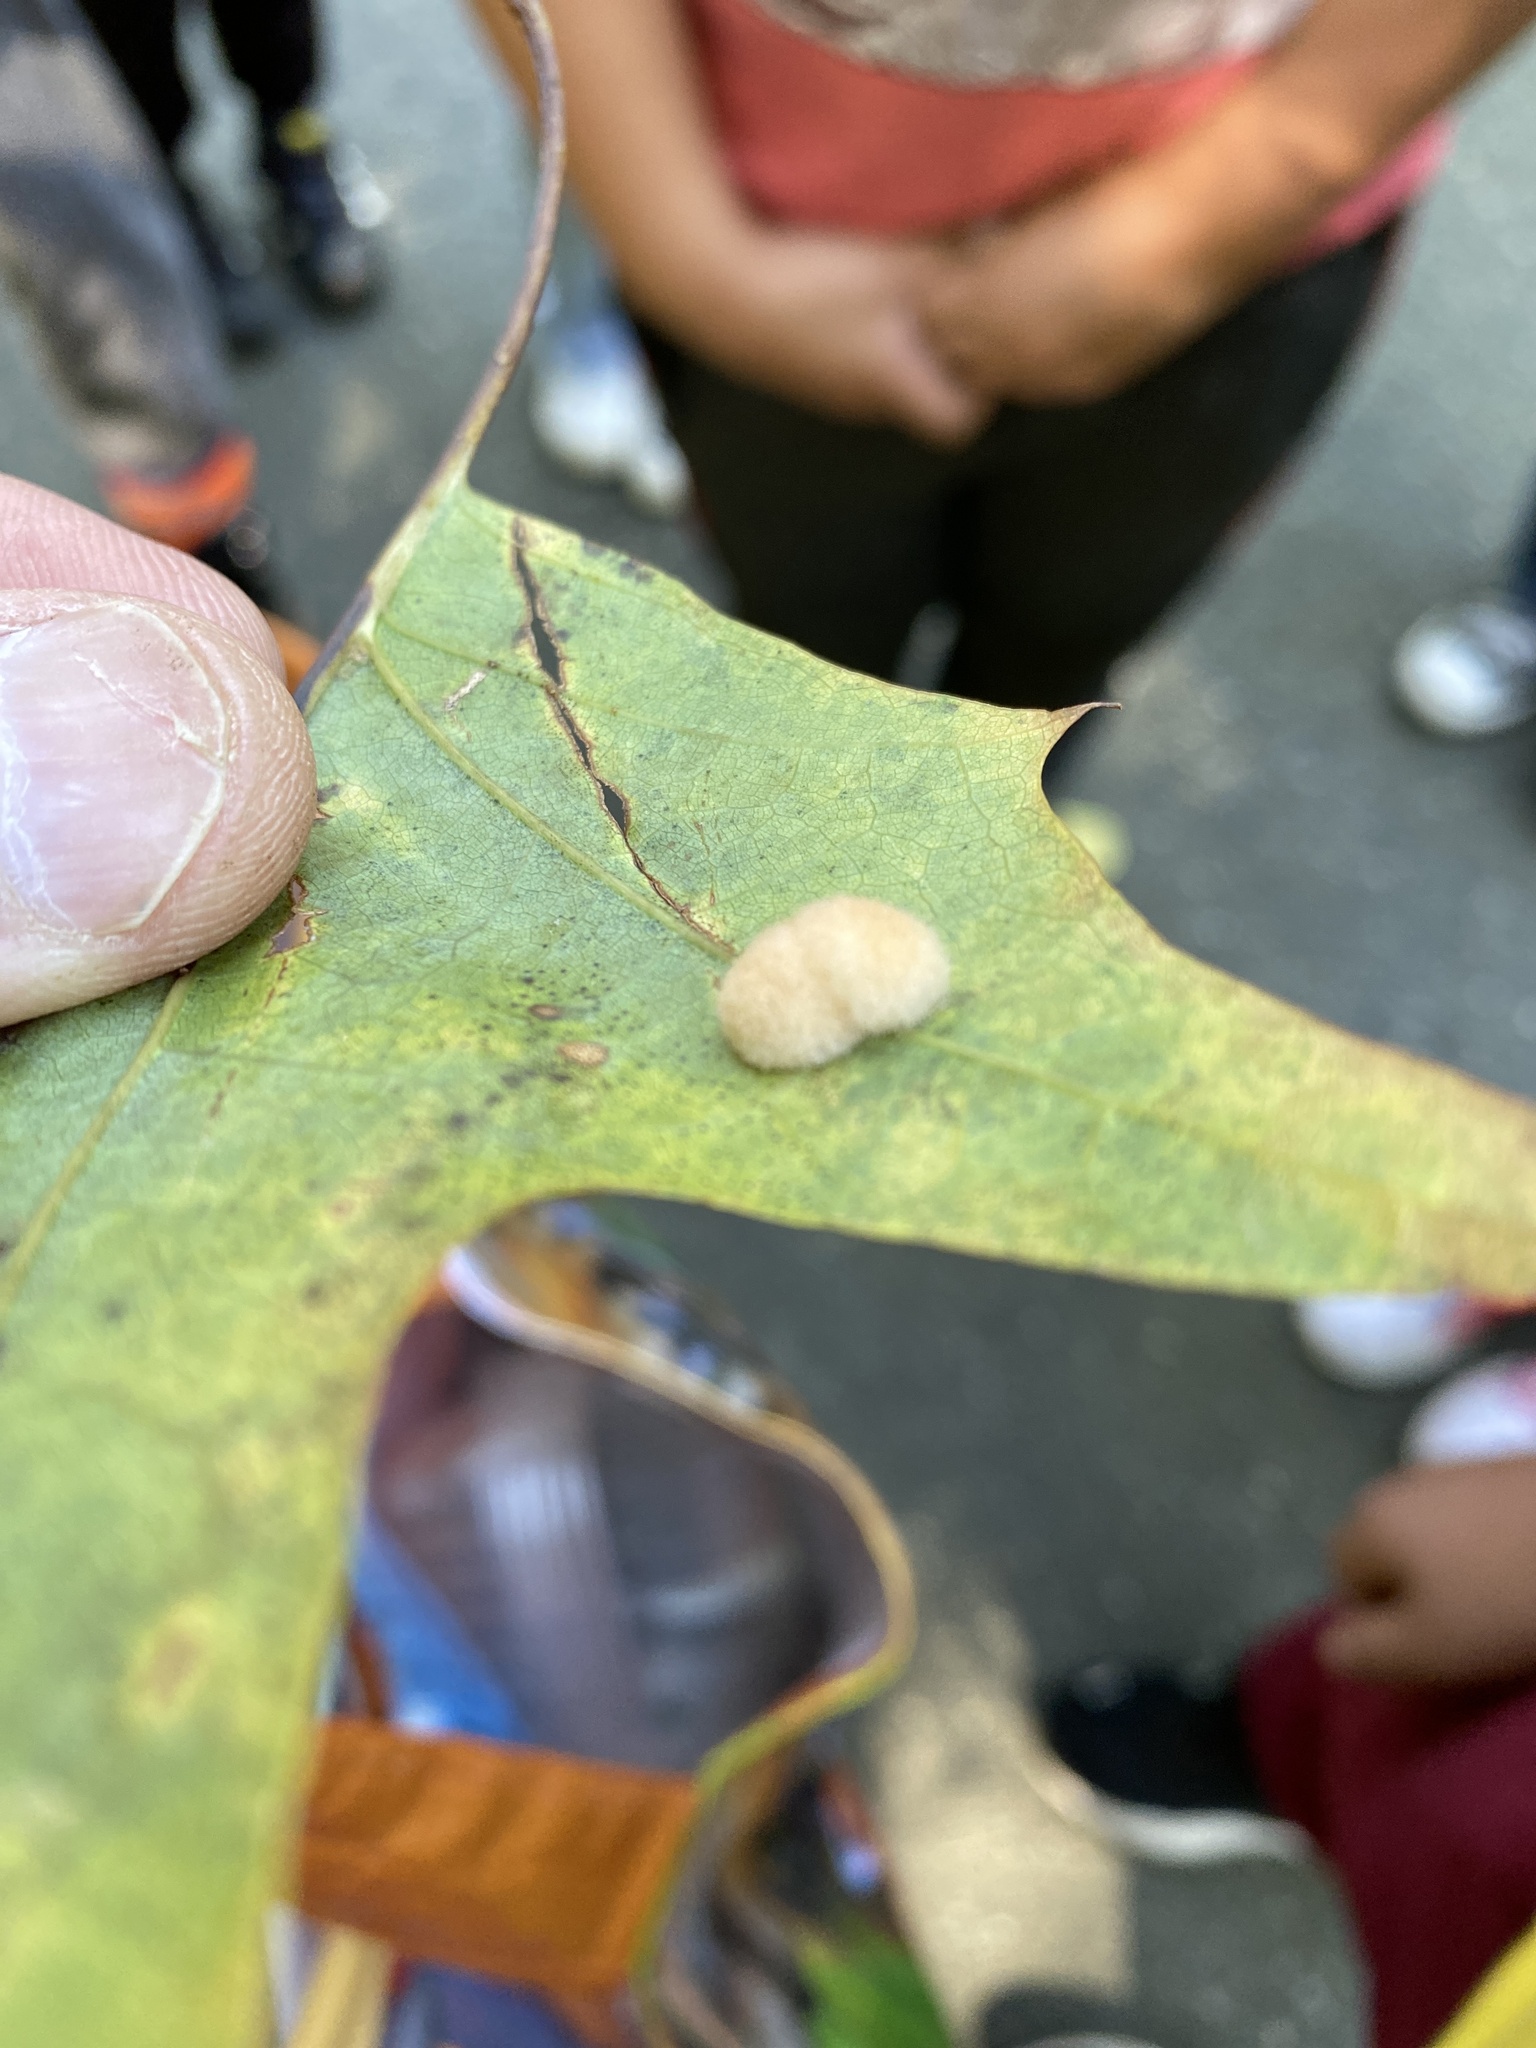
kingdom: Animalia
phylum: Arthropoda
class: Insecta
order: Hymenoptera
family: Cynipidae
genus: Callirhytis
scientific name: Callirhytis
